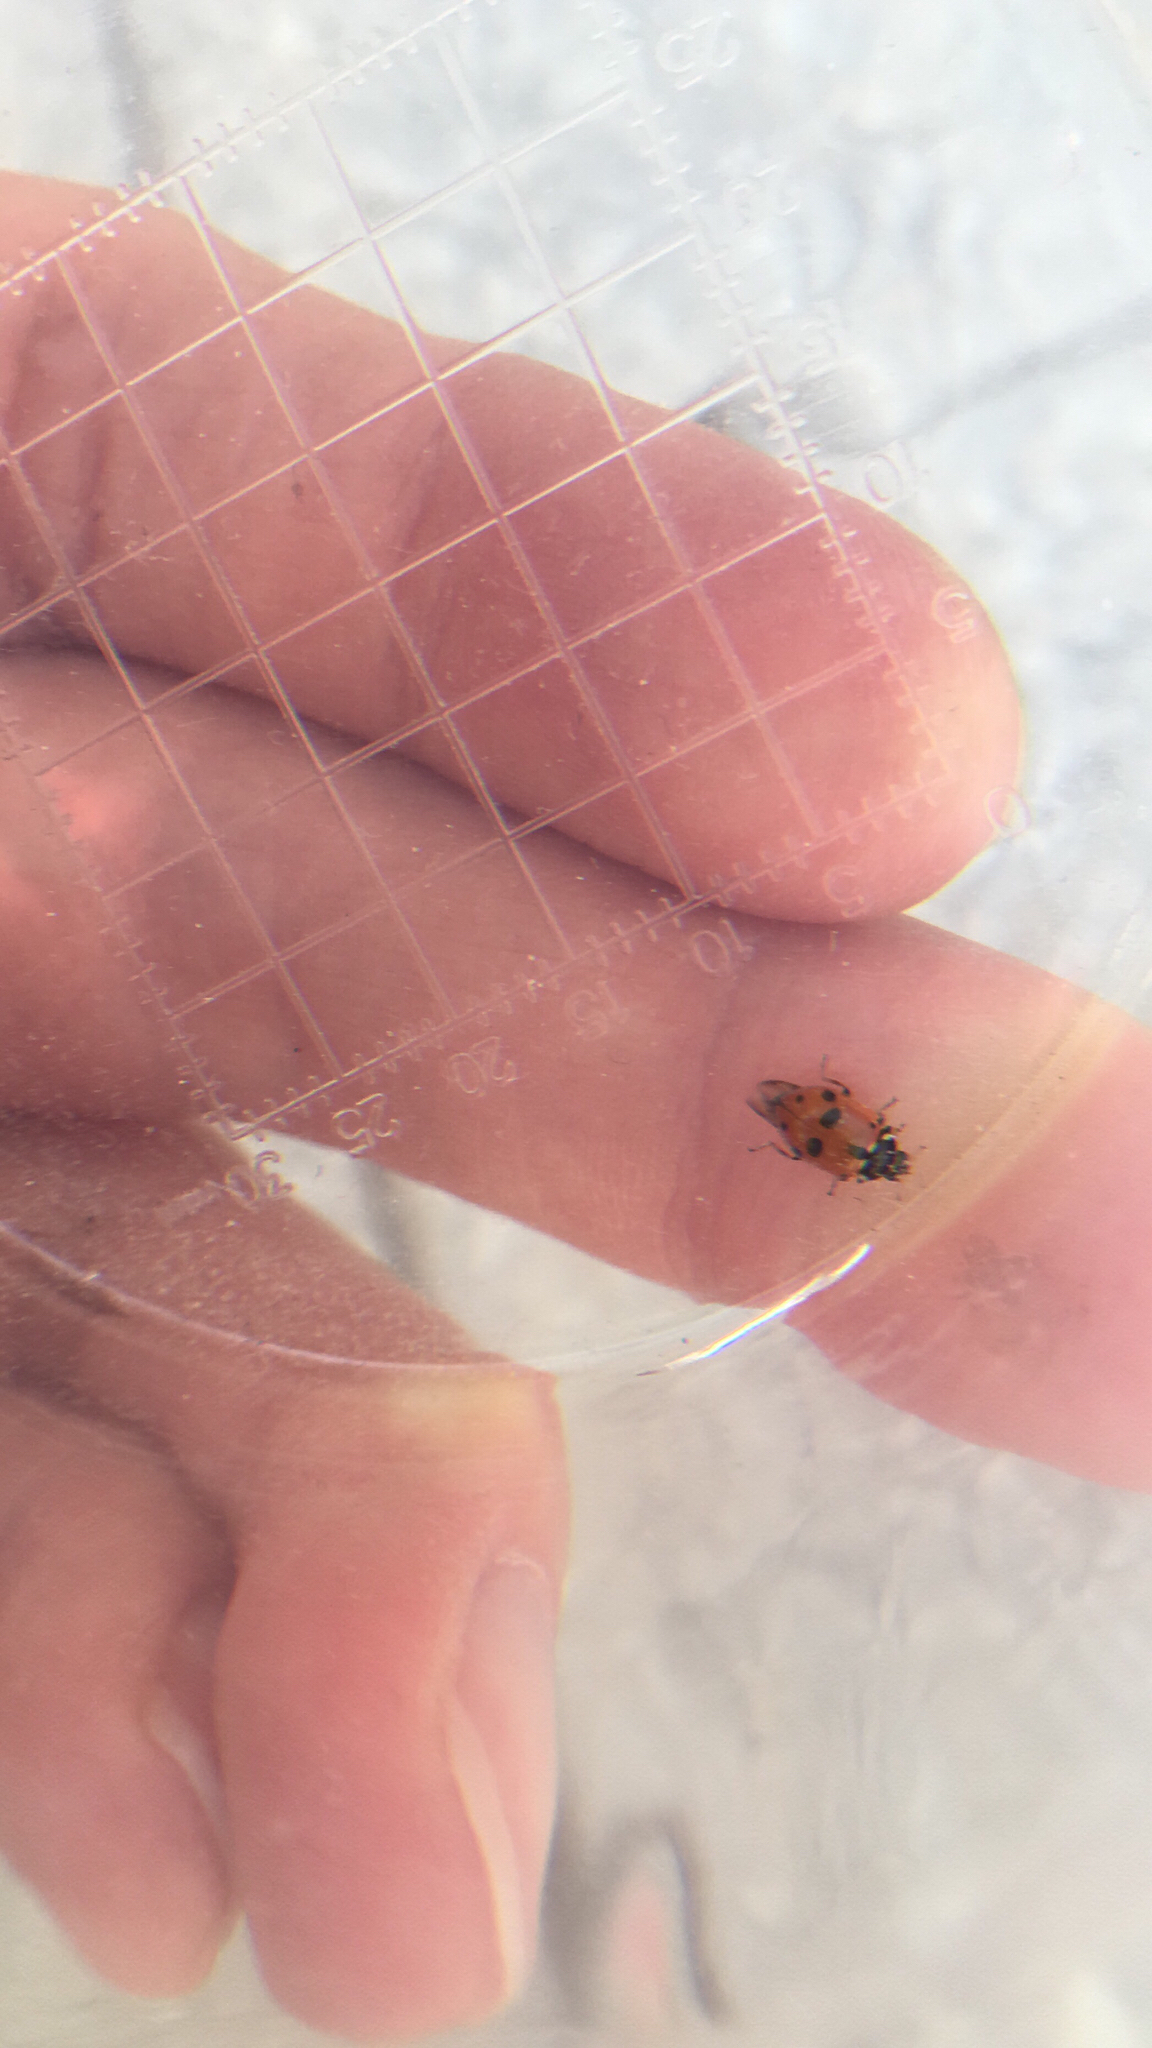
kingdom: Animalia
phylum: Arthropoda
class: Insecta
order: Coleoptera
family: Coccinellidae
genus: Hippodamia
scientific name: Hippodamia variegata
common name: Ladybird beetle
